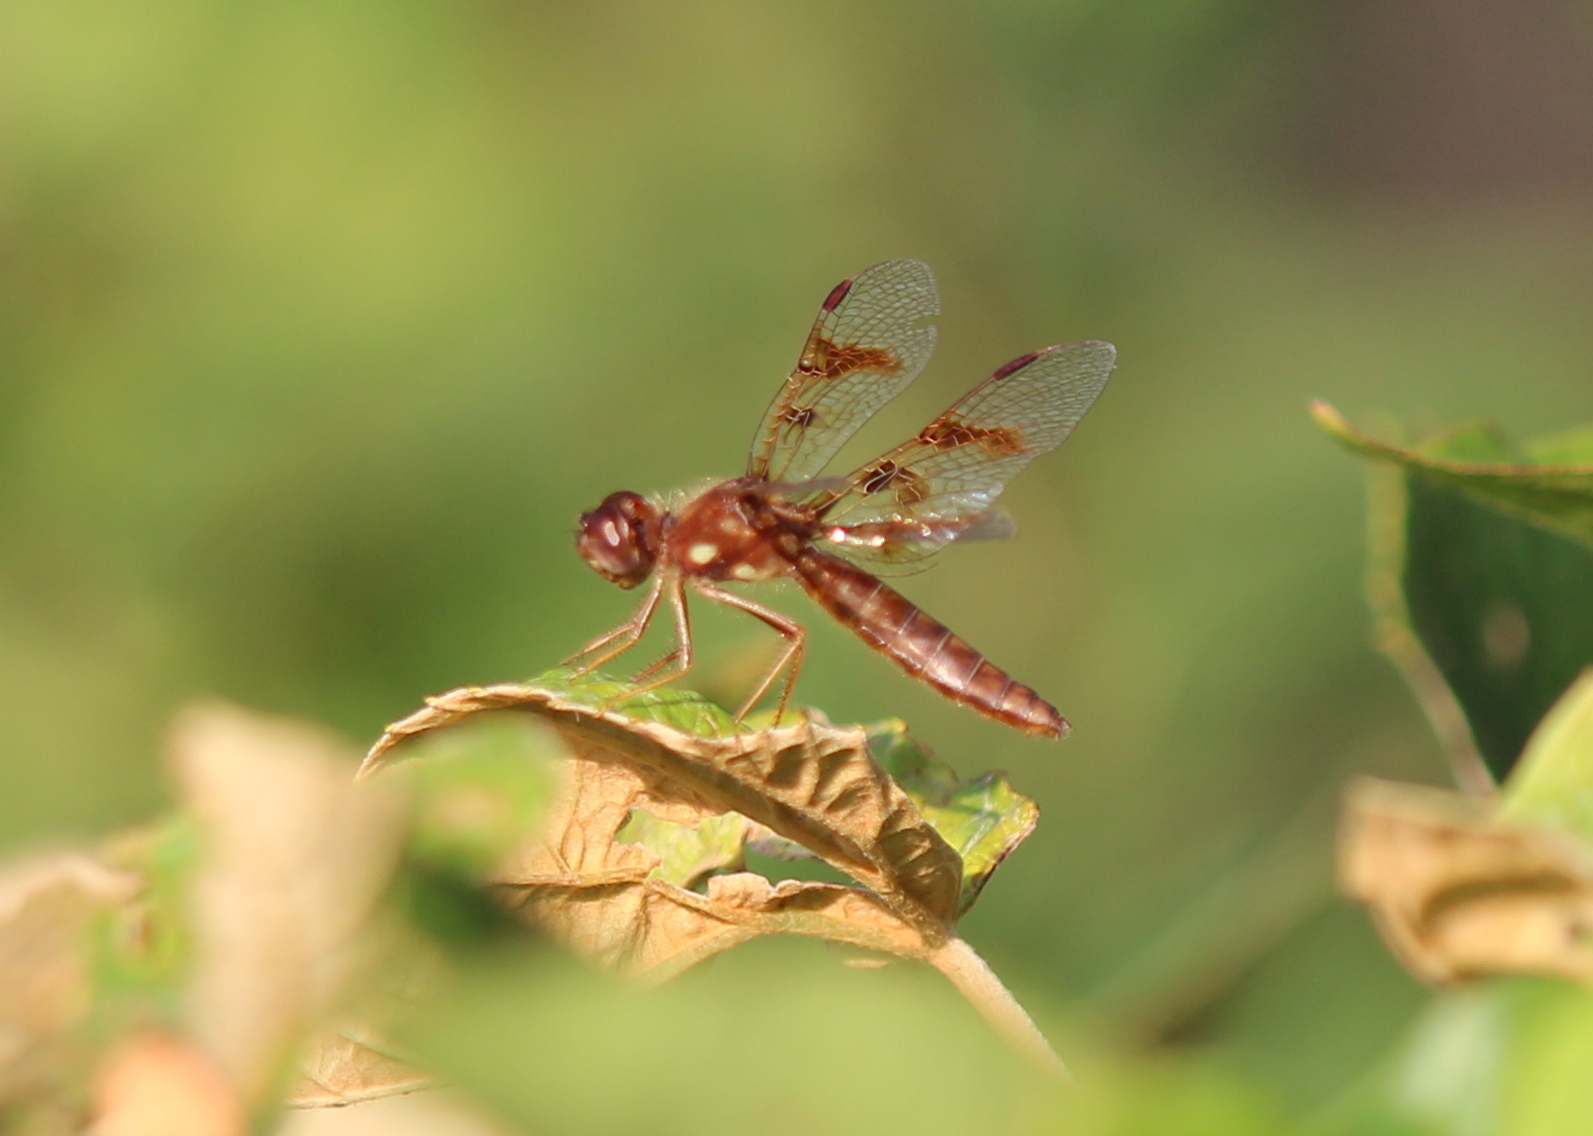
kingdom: Animalia
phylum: Arthropoda
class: Insecta
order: Odonata
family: Libellulidae
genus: Perithemis
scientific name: Perithemis tenera
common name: Eastern amberwing
